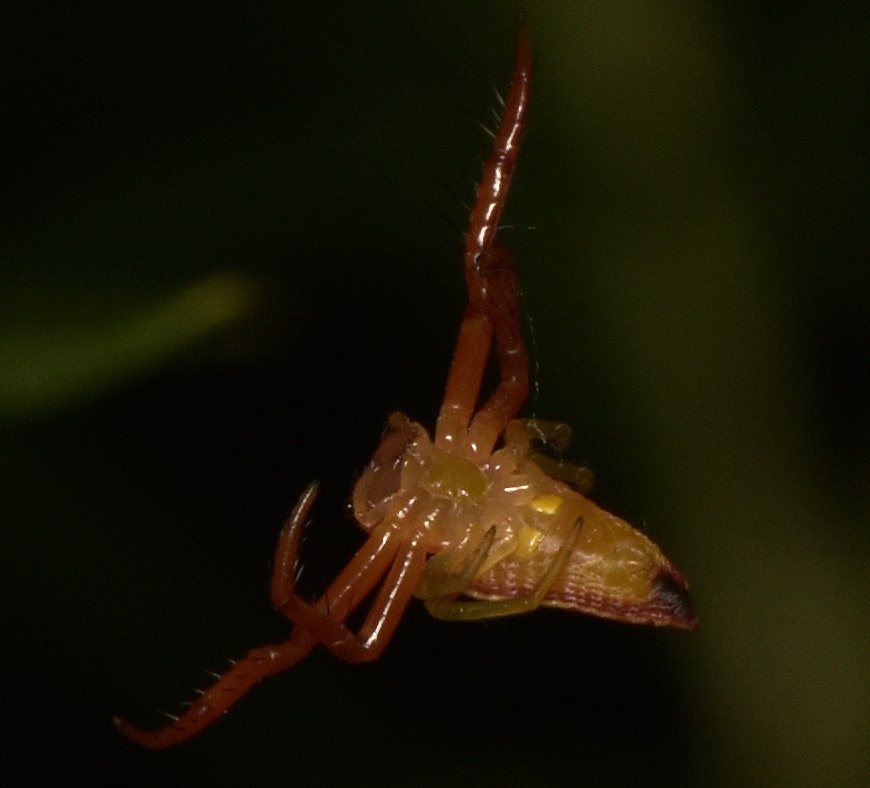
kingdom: Animalia
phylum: Arthropoda
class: Arachnida
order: Araneae
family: Arkyidae
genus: Arkys
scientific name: Arkys walckenaeri
